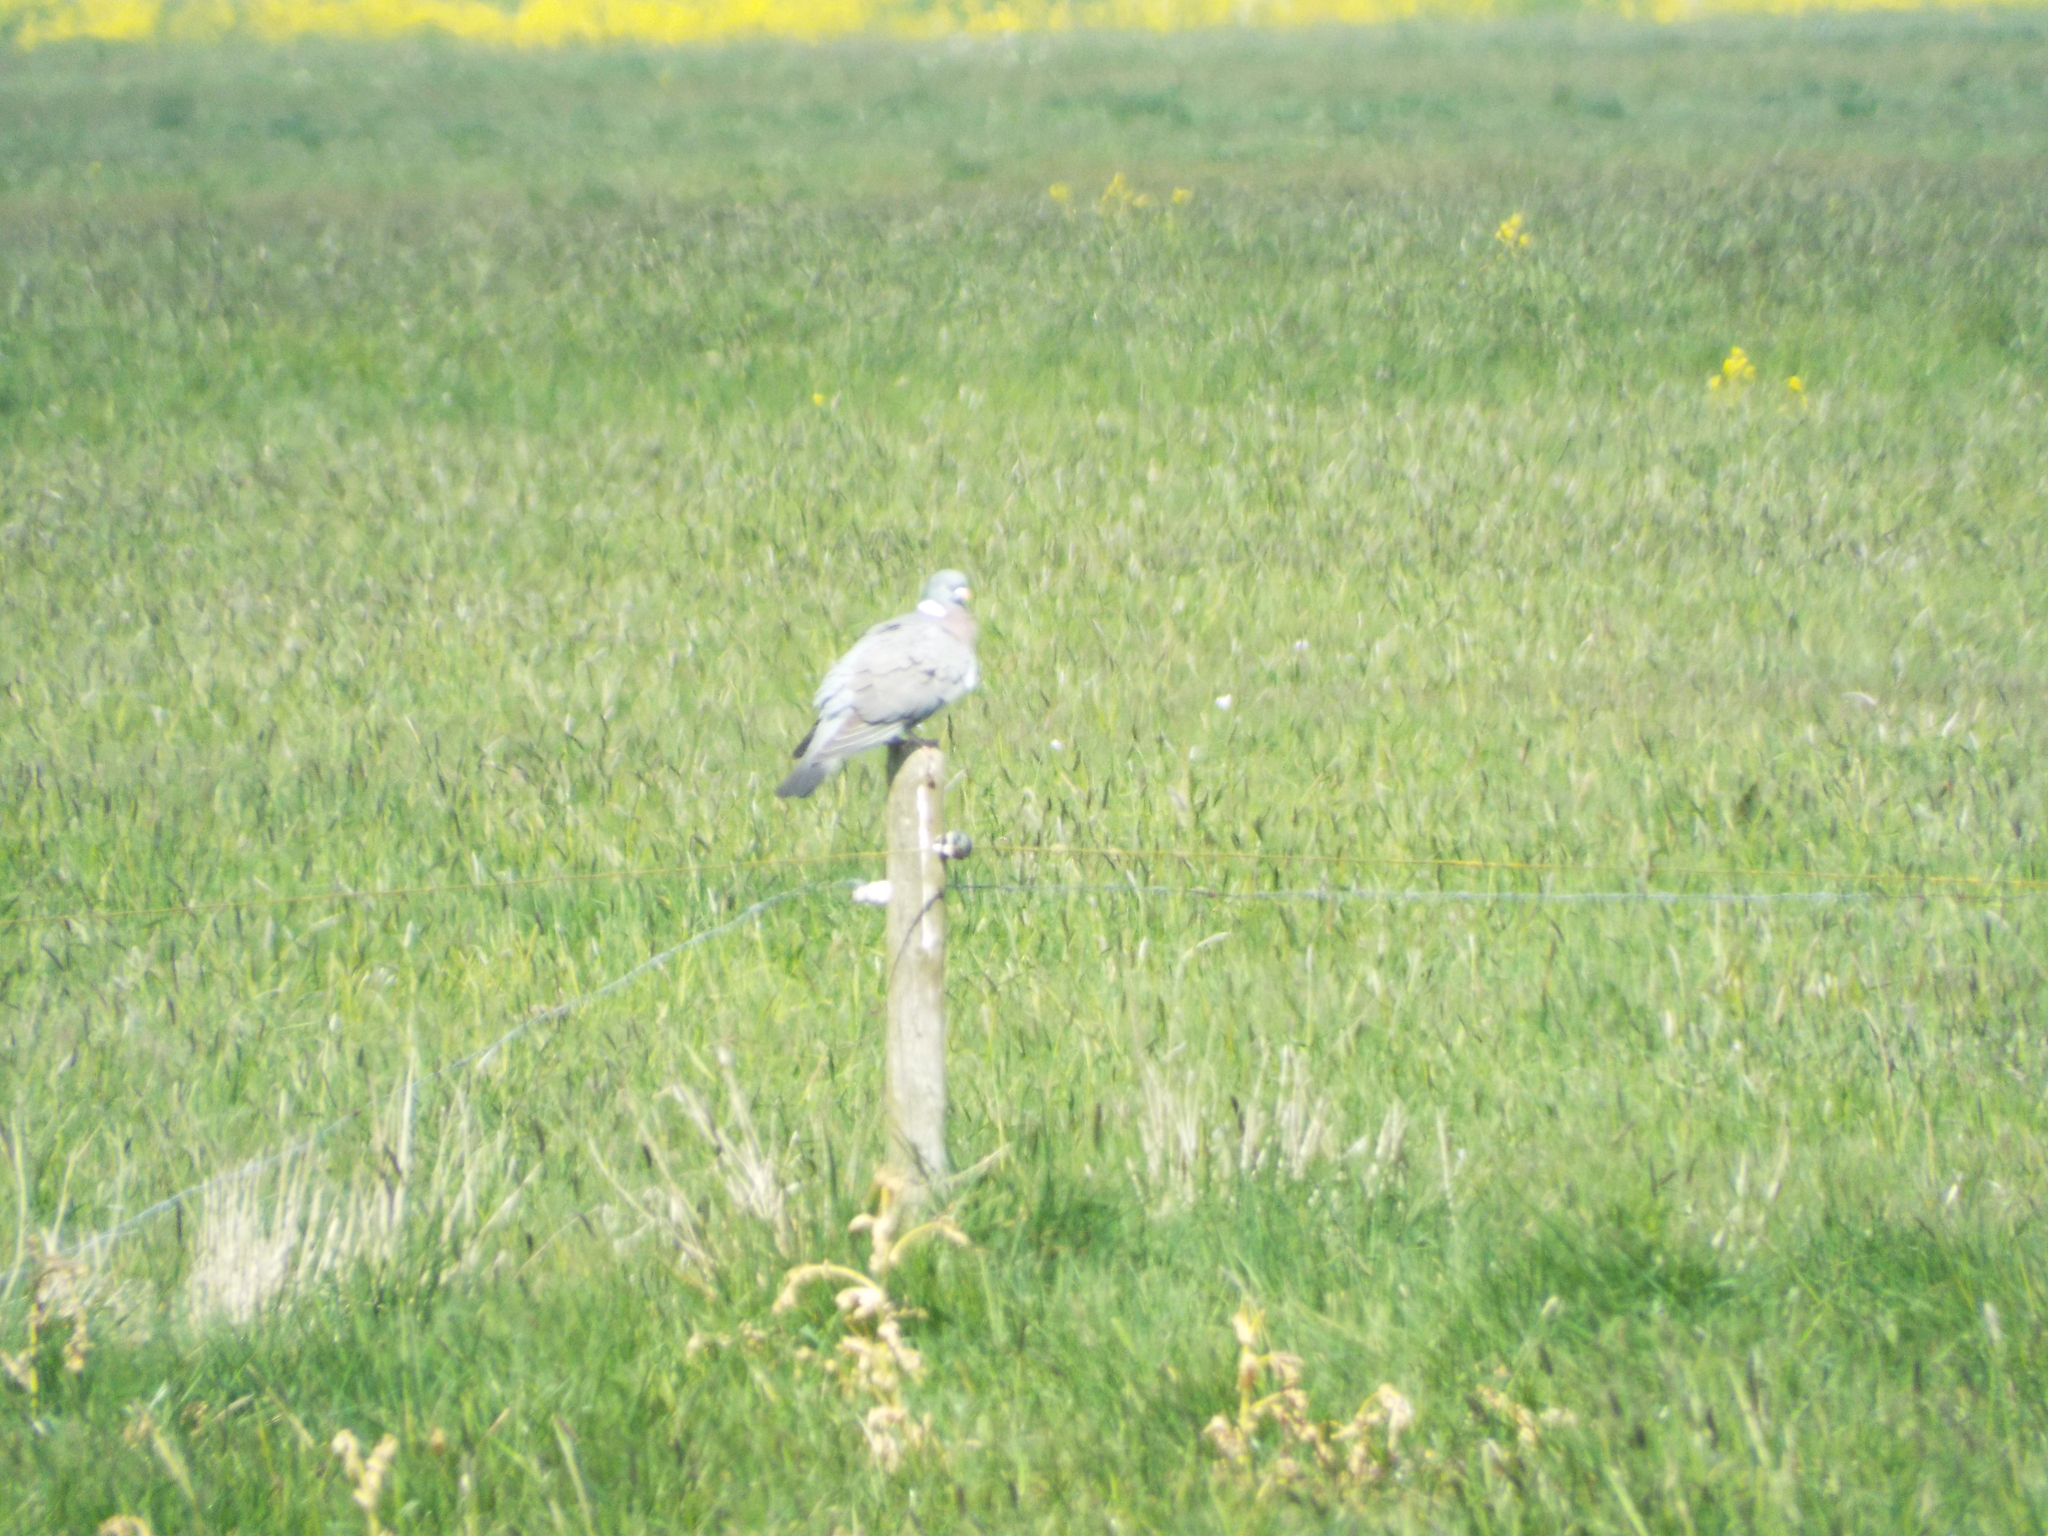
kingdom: Animalia
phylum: Chordata
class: Aves
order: Columbiformes
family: Columbidae
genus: Columba
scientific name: Columba palumbus
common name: Common wood pigeon
